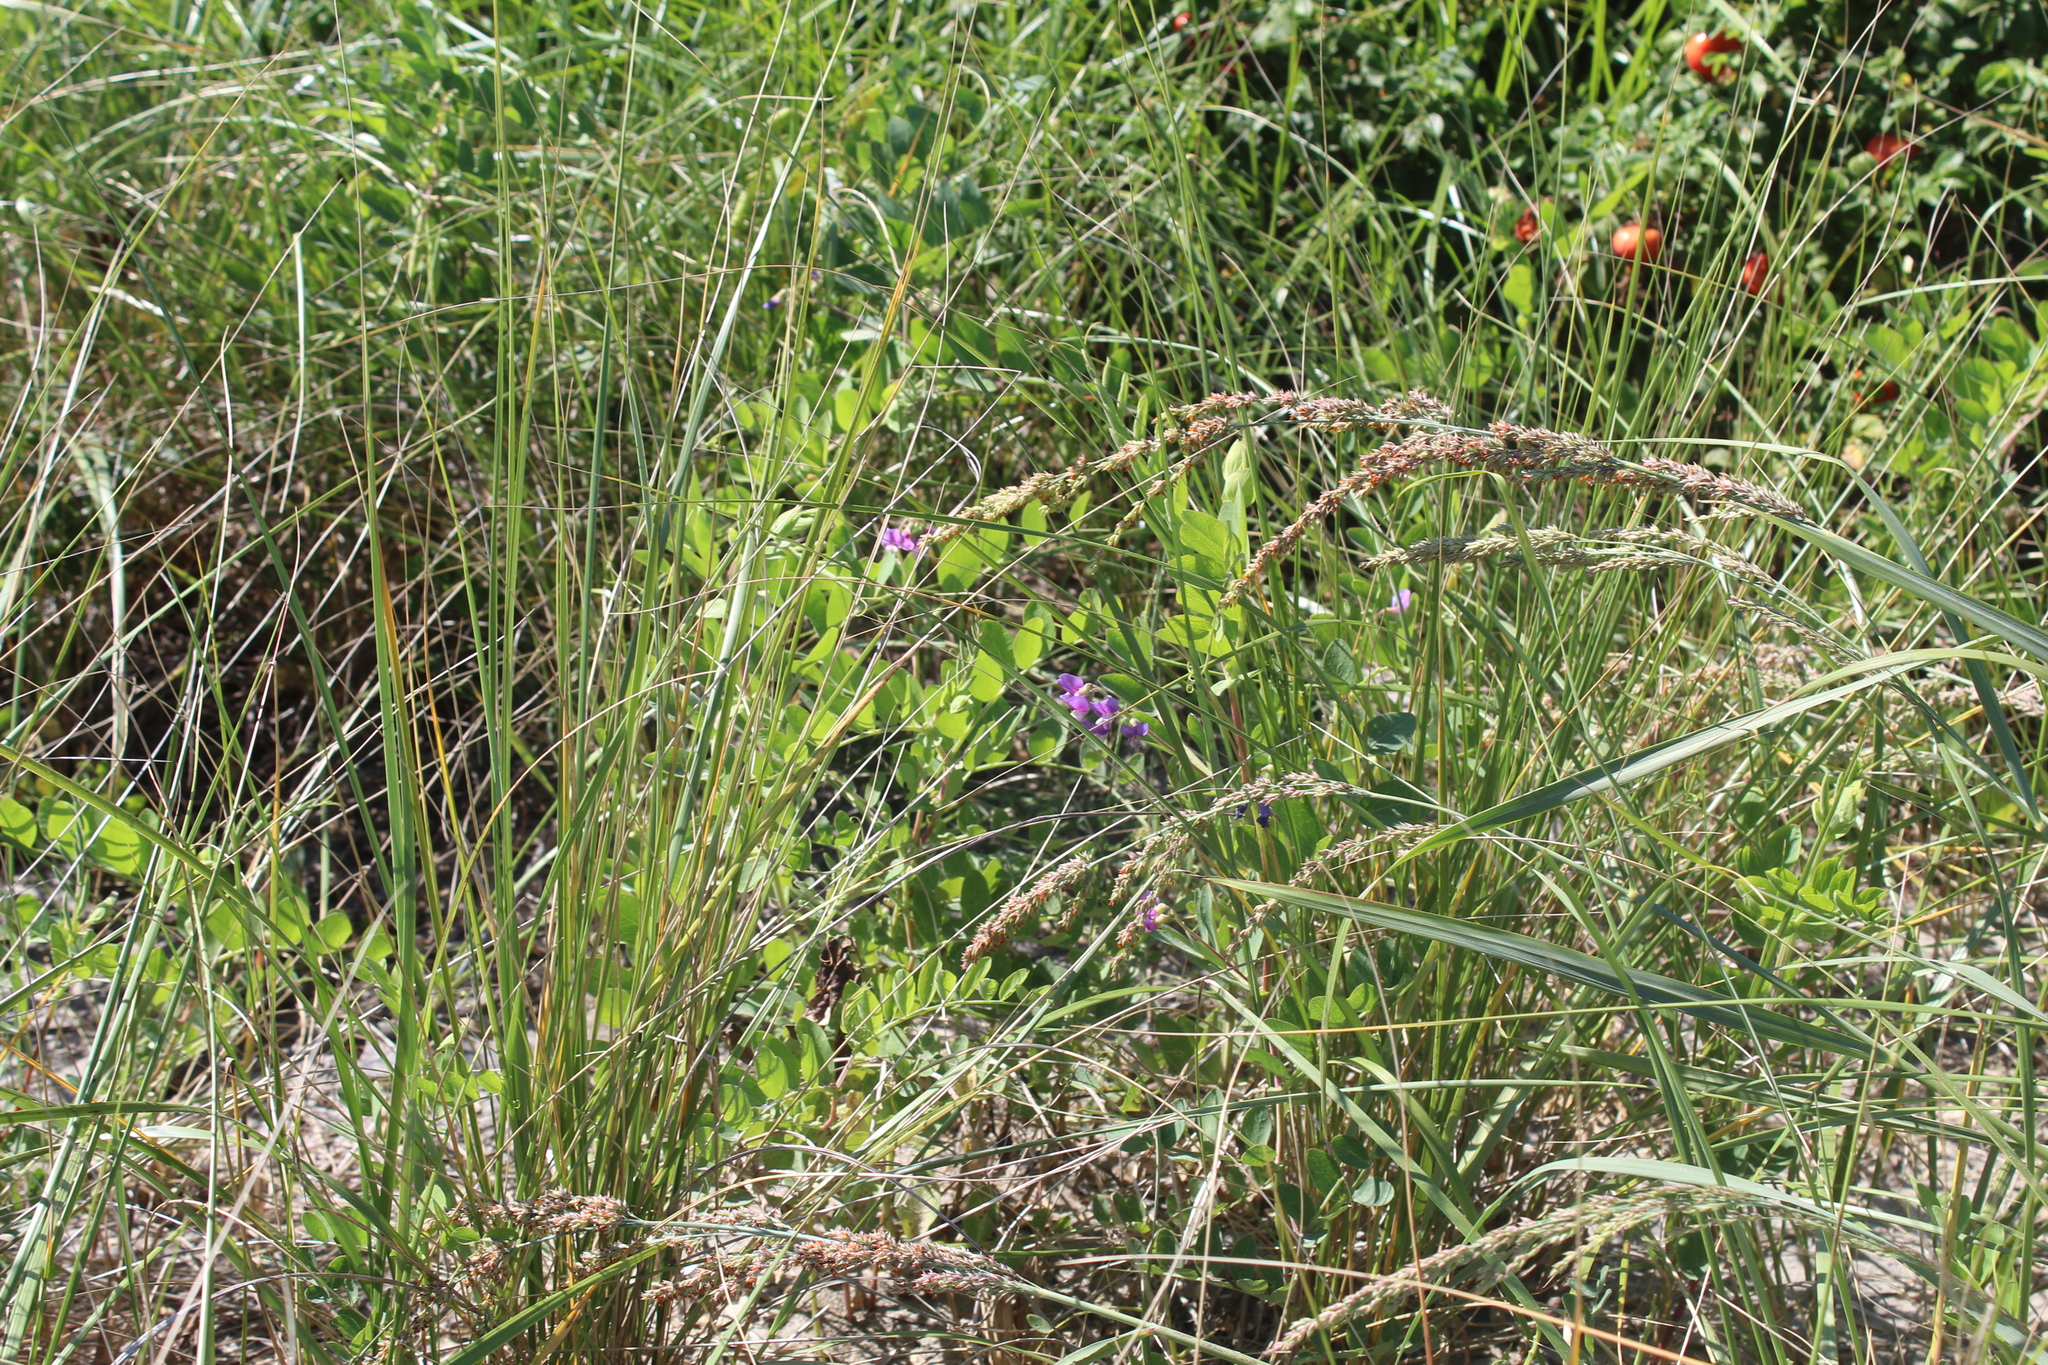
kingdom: Plantae
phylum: Tracheophyta
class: Magnoliopsida
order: Fabales
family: Fabaceae
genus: Lathyrus
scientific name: Lathyrus japonicus
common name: Sea pea
